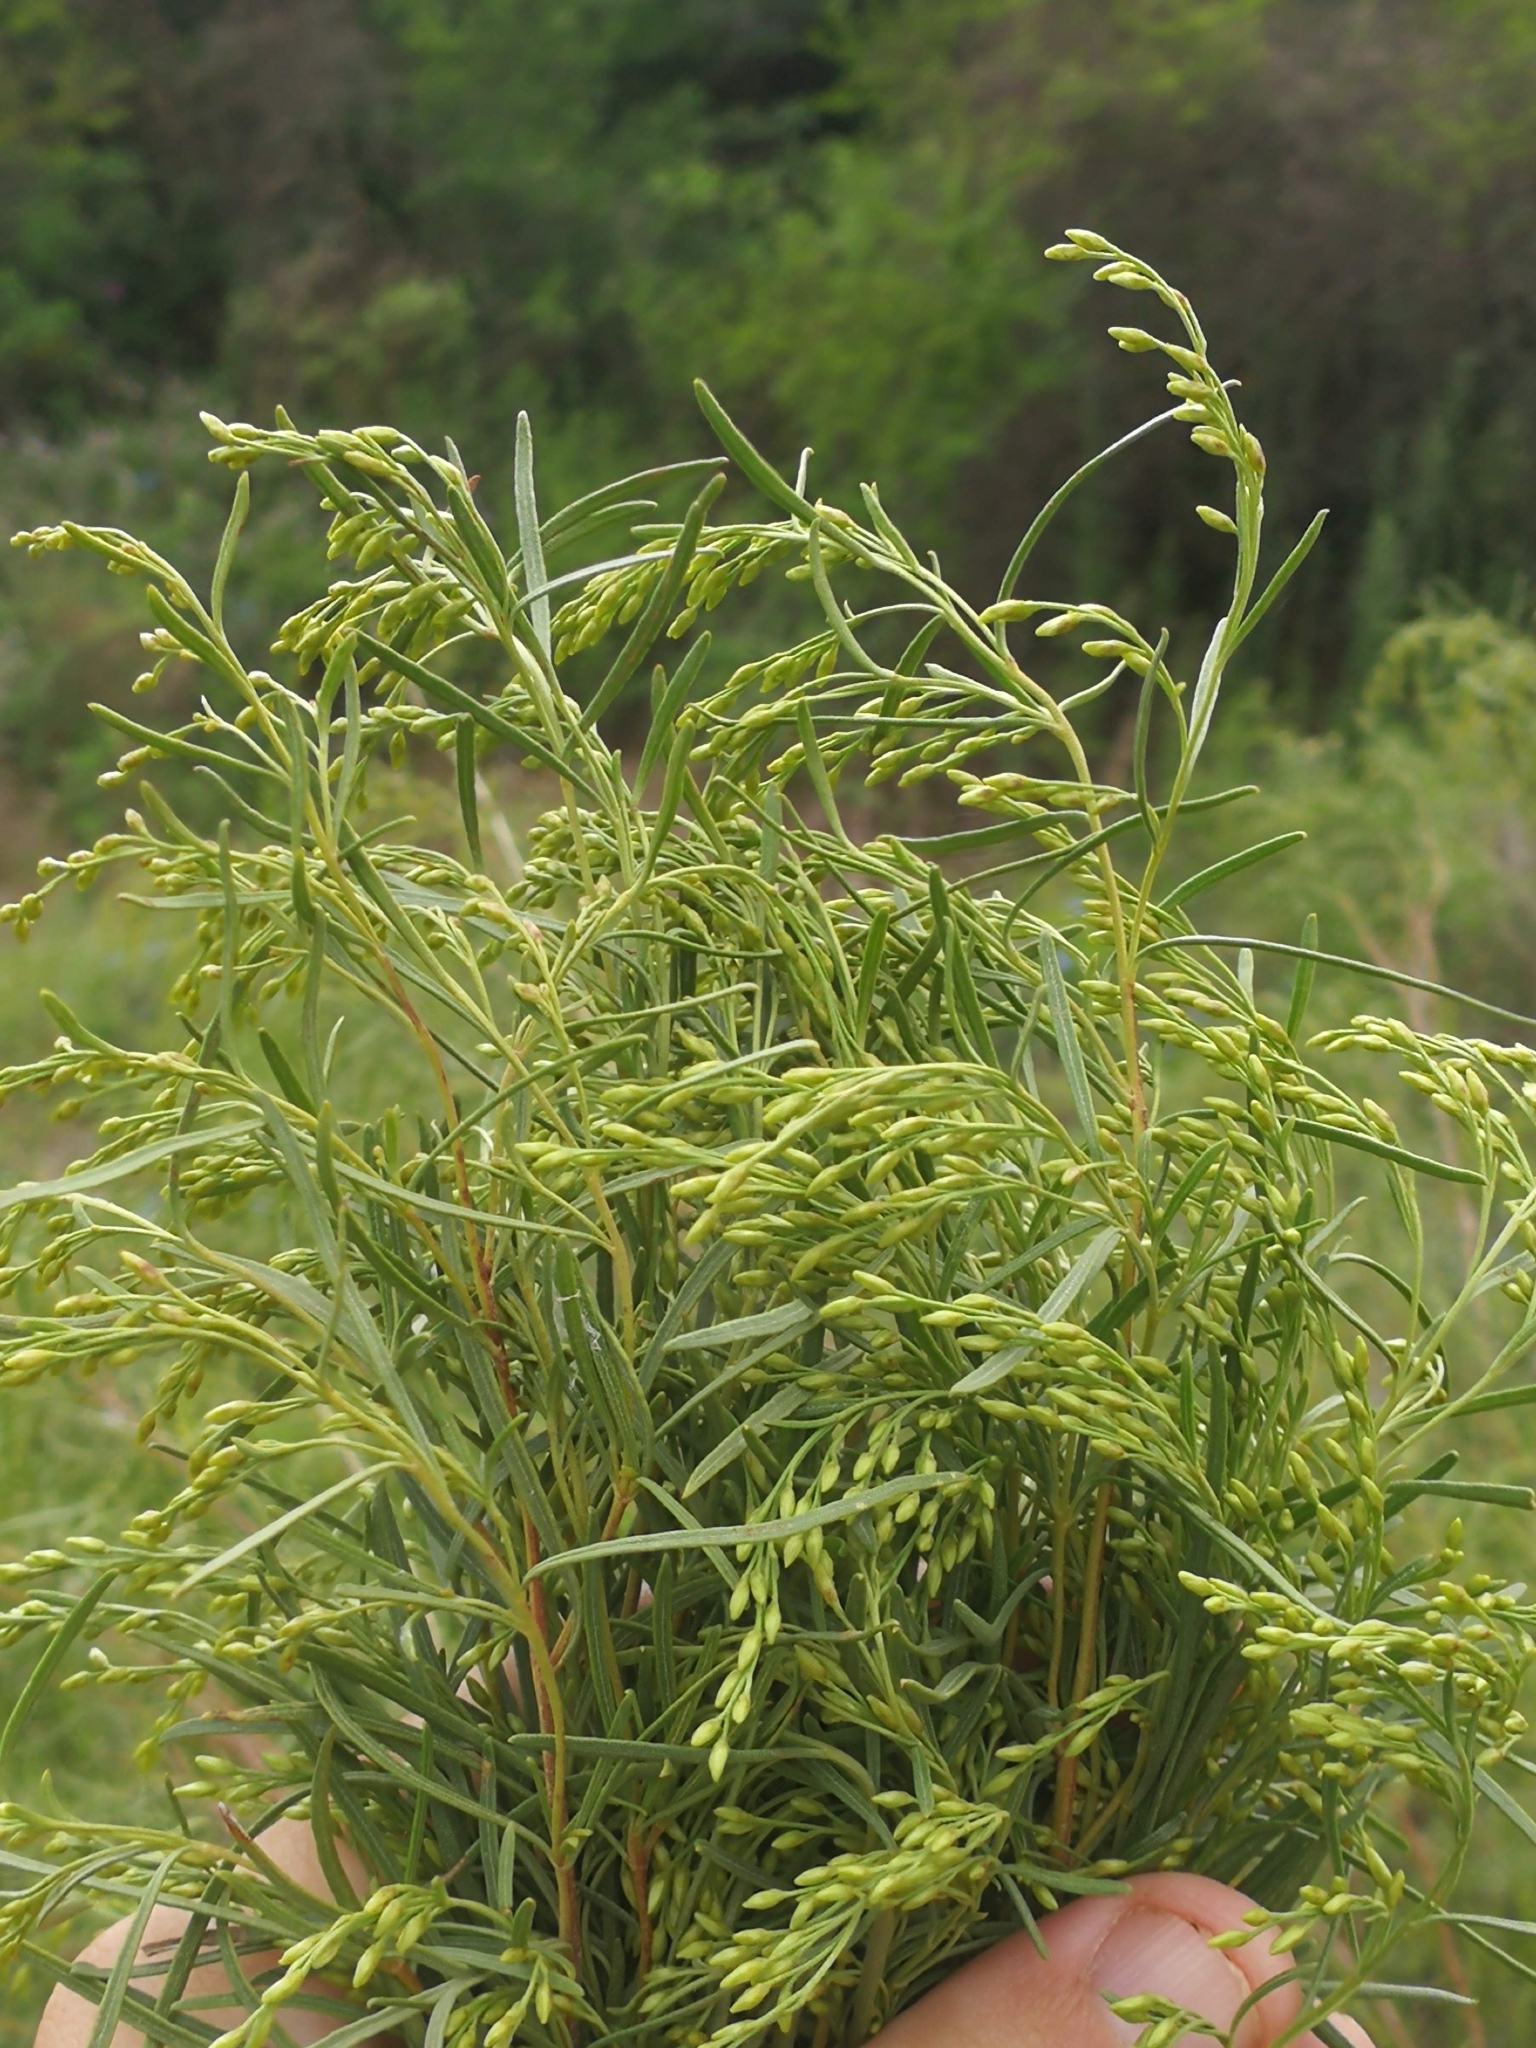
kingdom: Plantae
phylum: Tracheophyta
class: Magnoliopsida
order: Asterales
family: Asteraceae
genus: Acanthostyles
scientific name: Acanthostyles buniifolius
